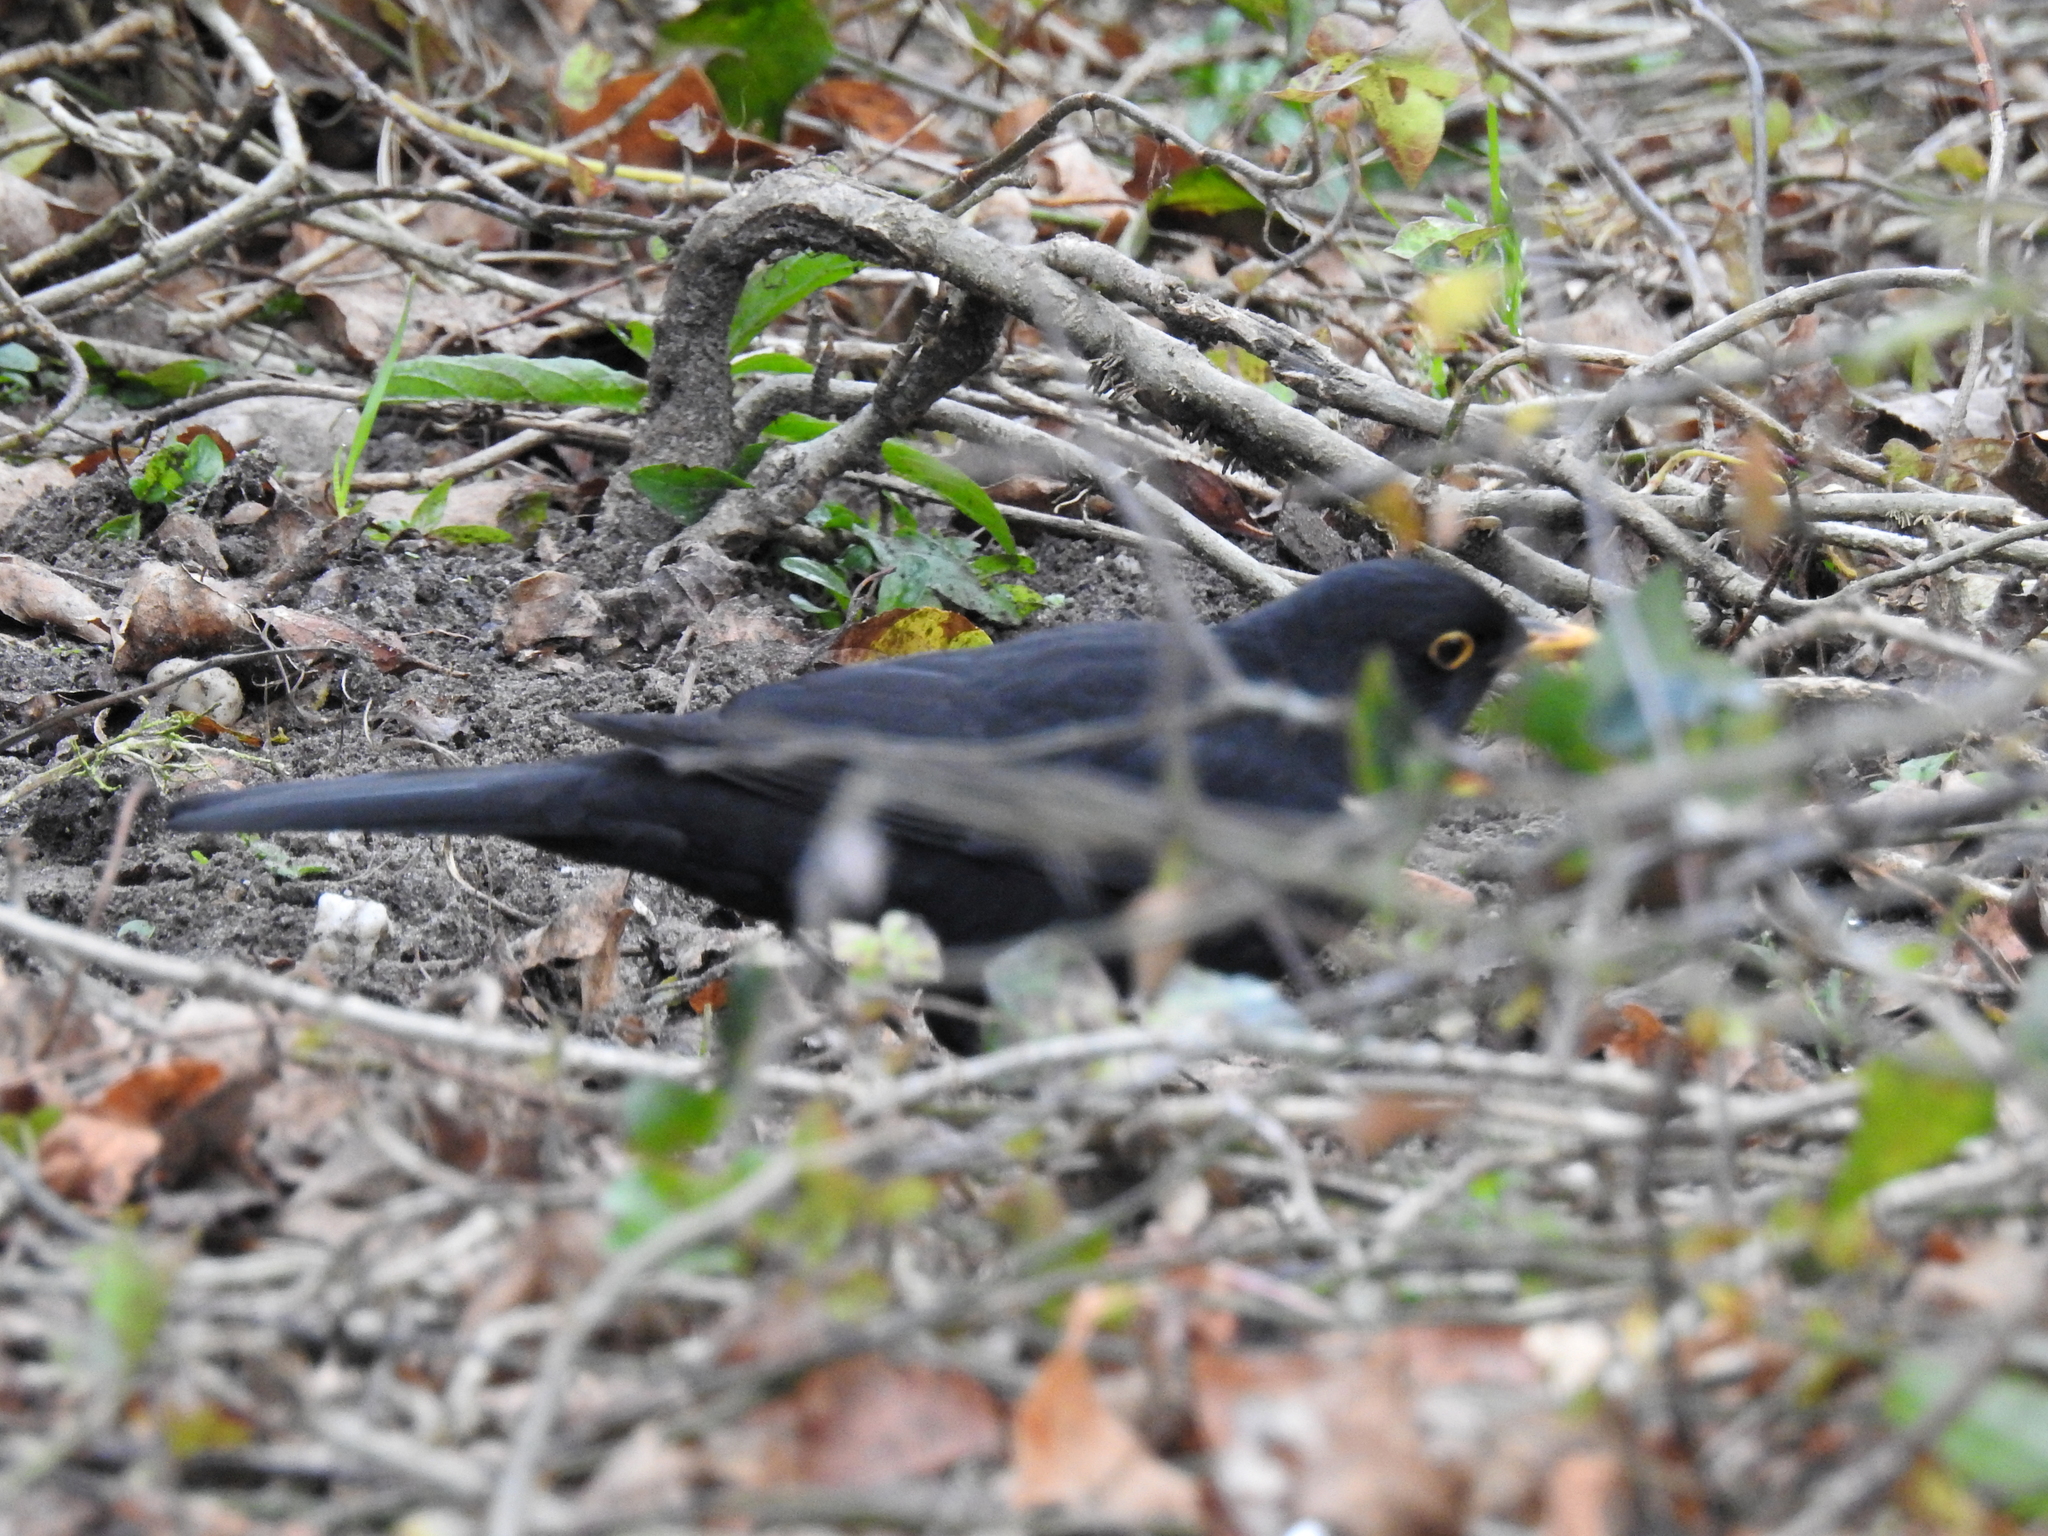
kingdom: Animalia
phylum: Chordata
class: Aves
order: Passeriformes
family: Turdidae
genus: Turdus
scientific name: Turdus merula
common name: Common blackbird
